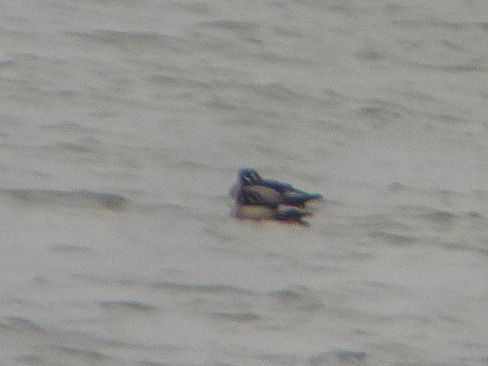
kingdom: Animalia
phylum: Chordata
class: Aves
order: Anseriformes
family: Anatidae
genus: Aix
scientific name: Aix sponsa
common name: Wood duck
